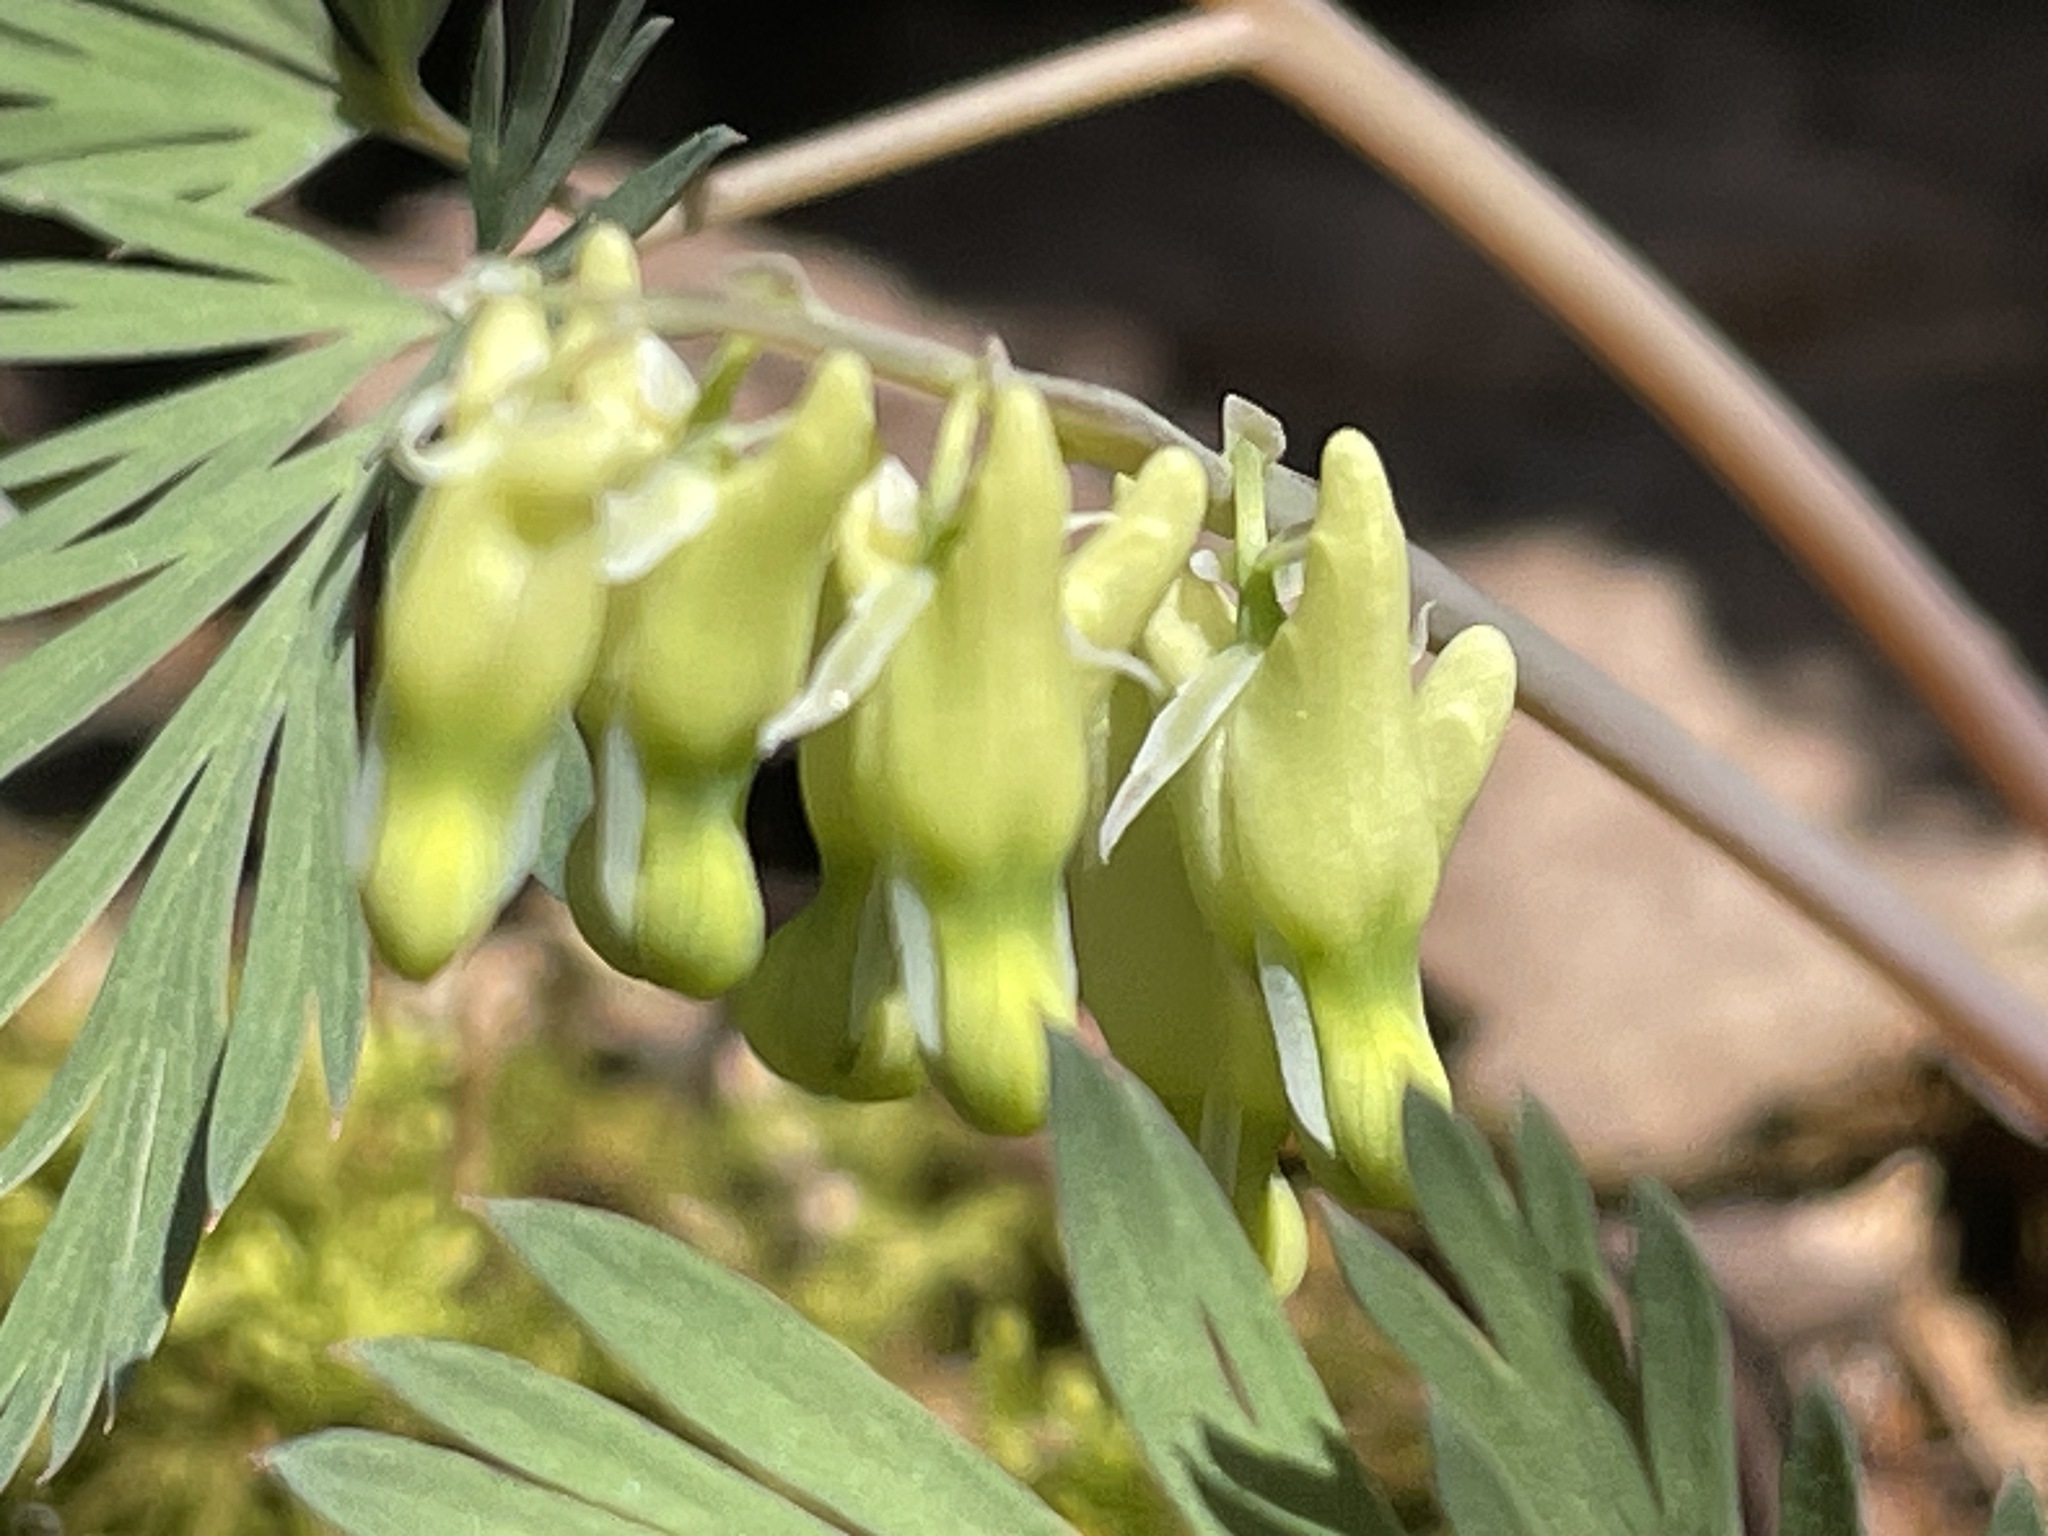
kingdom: Plantae
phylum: Tracheophyta
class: Magnoliopsida
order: Ranunculales
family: Papaveraceae
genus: Dicentra
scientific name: Dicentra cucullaria
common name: Dutchman's breeches
